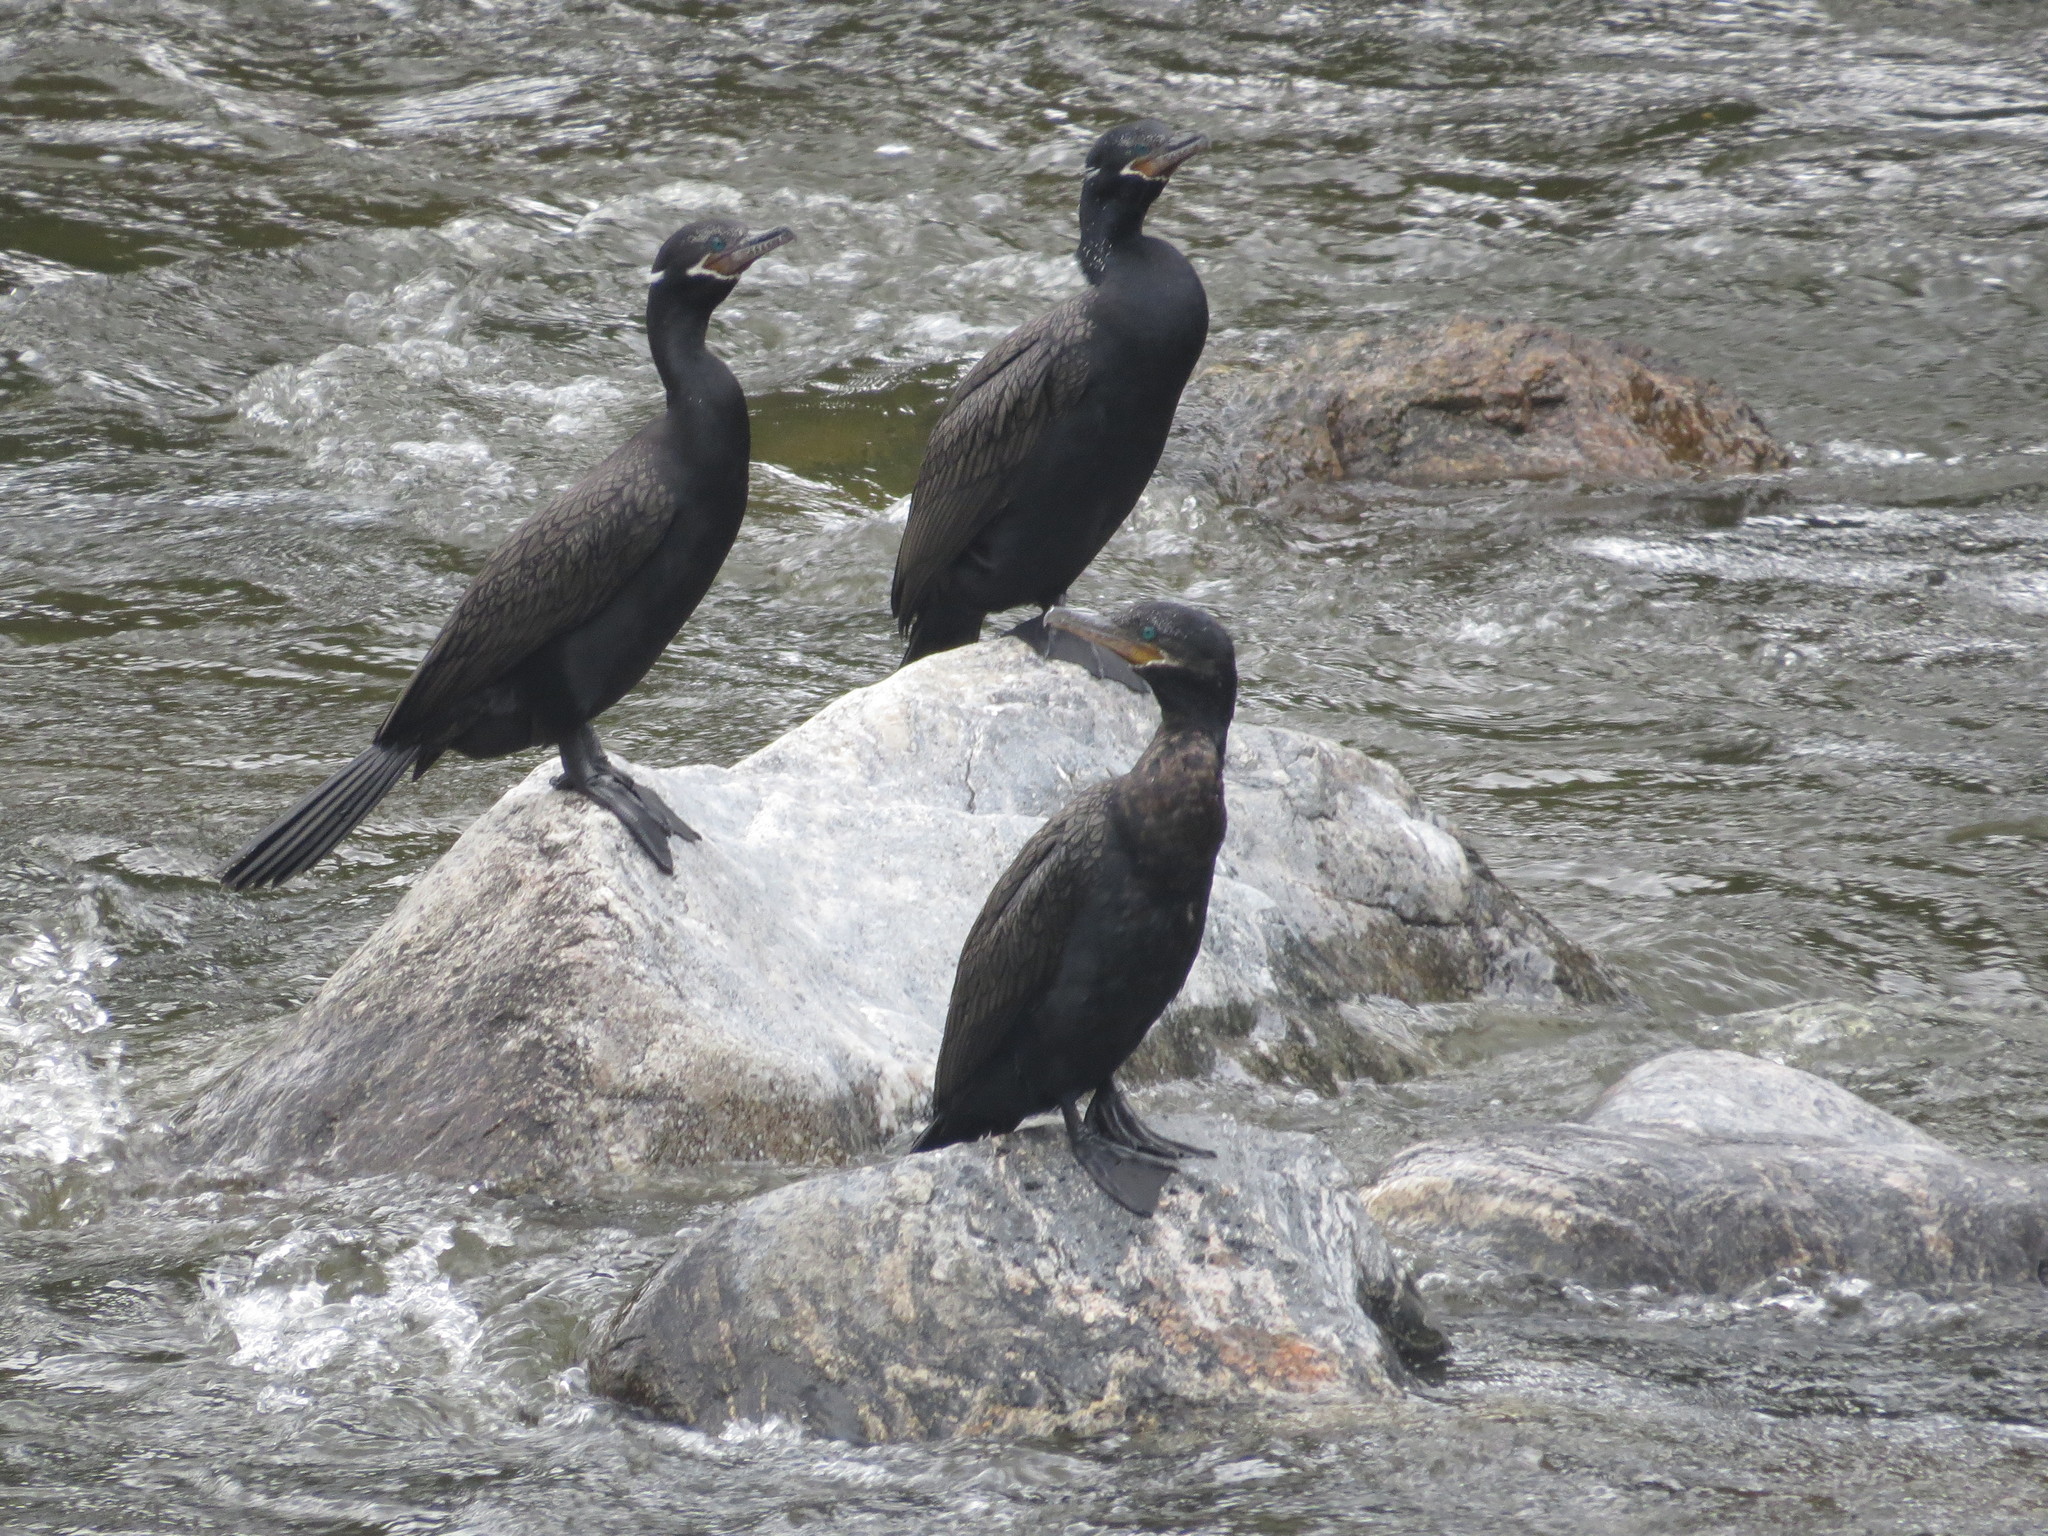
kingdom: Animalia
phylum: Chordata
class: Aves
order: Suliformes
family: Phalacrocoracidae
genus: Phalacrocorax
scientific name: Phalacrocorax brasilianus
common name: Neotropic cormorant
